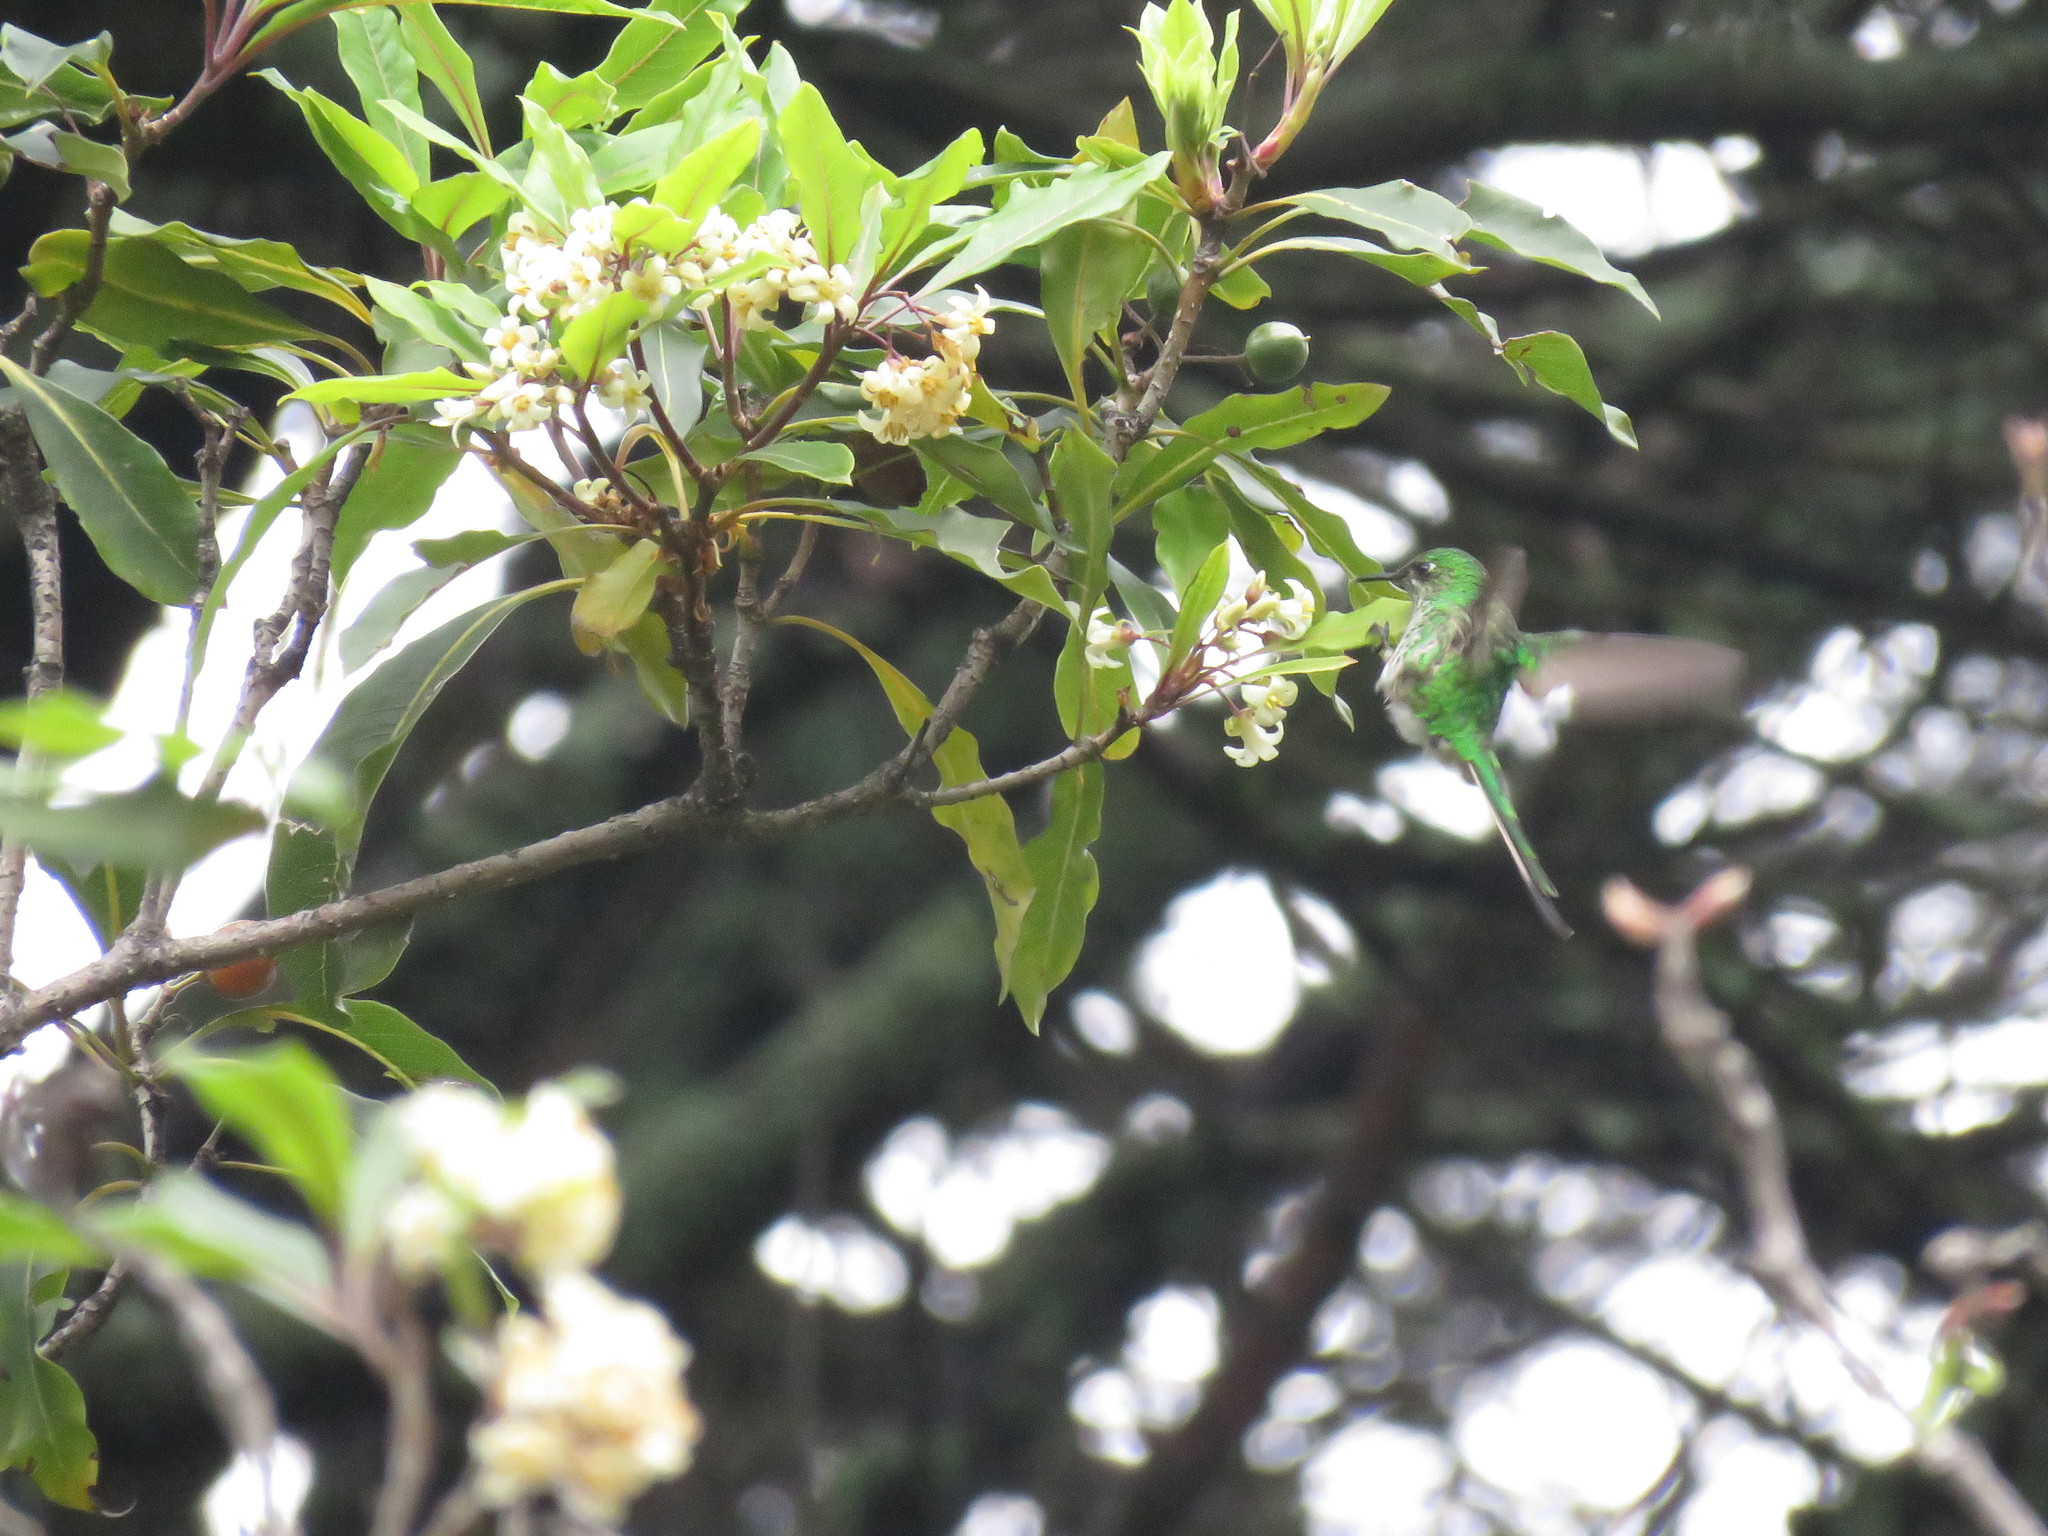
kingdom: Animalia
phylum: Chordata
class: Aves
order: Apodiformes
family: Trochilidae
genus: Lesbia
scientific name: Lesbia nuna
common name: Green-tailed trainbearer
